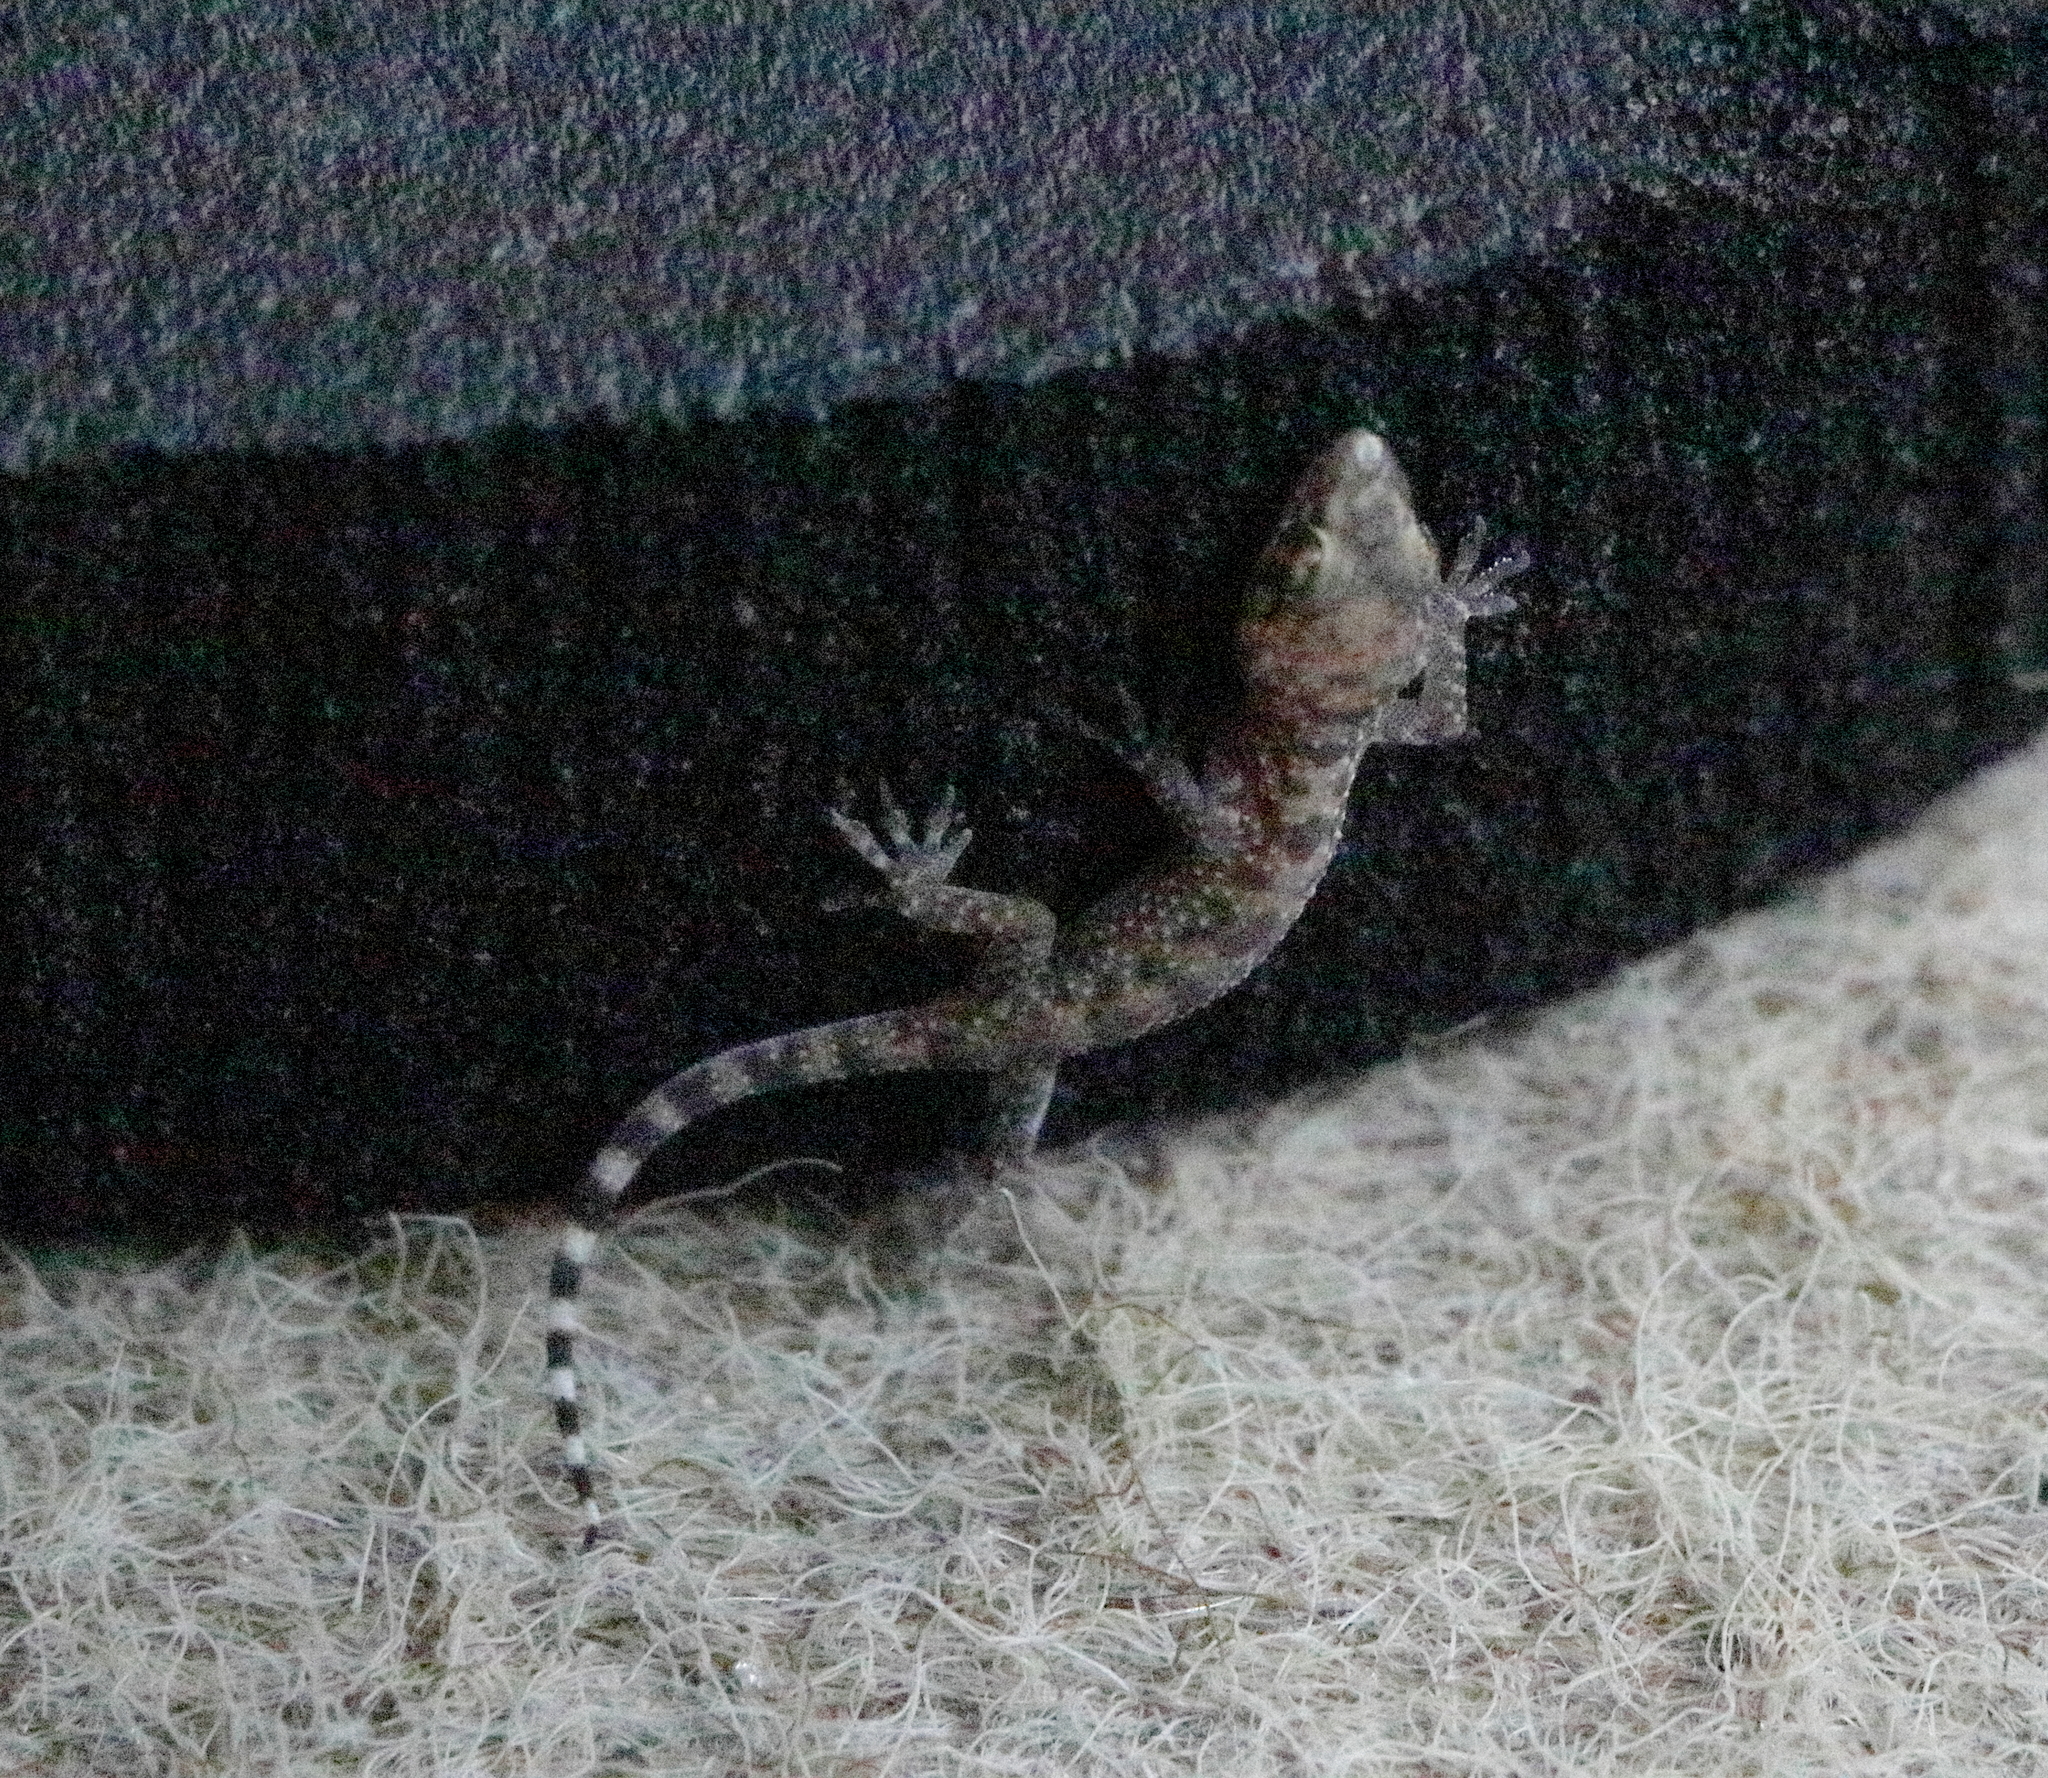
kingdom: Animalia
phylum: Chordata
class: Squamata
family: Gekkonidae
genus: Hemidactylus
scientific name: Hemidactylus turcicus
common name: Turkish gecko
